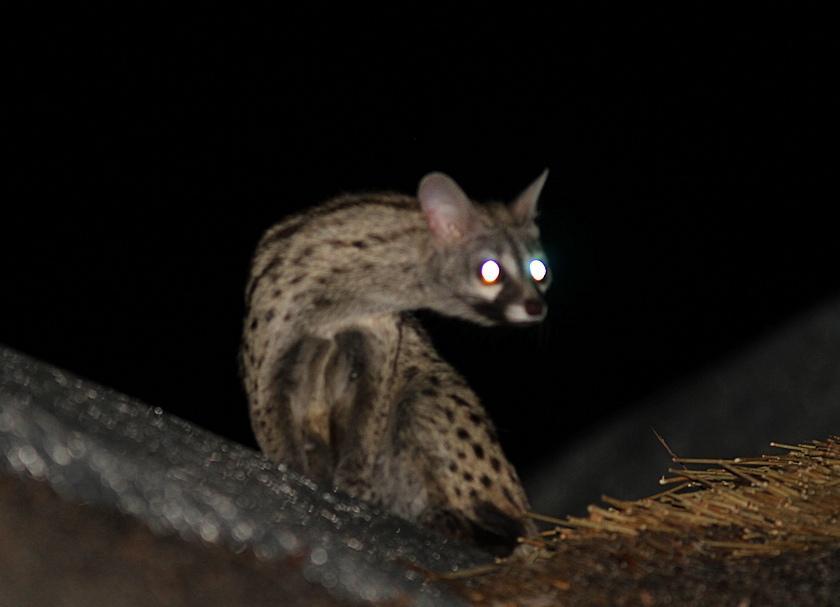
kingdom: Animalia
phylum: Chordata
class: Mammalia
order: Carnivora
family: Viverridae
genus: Genetta
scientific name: Genetta genetta
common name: Common genet
